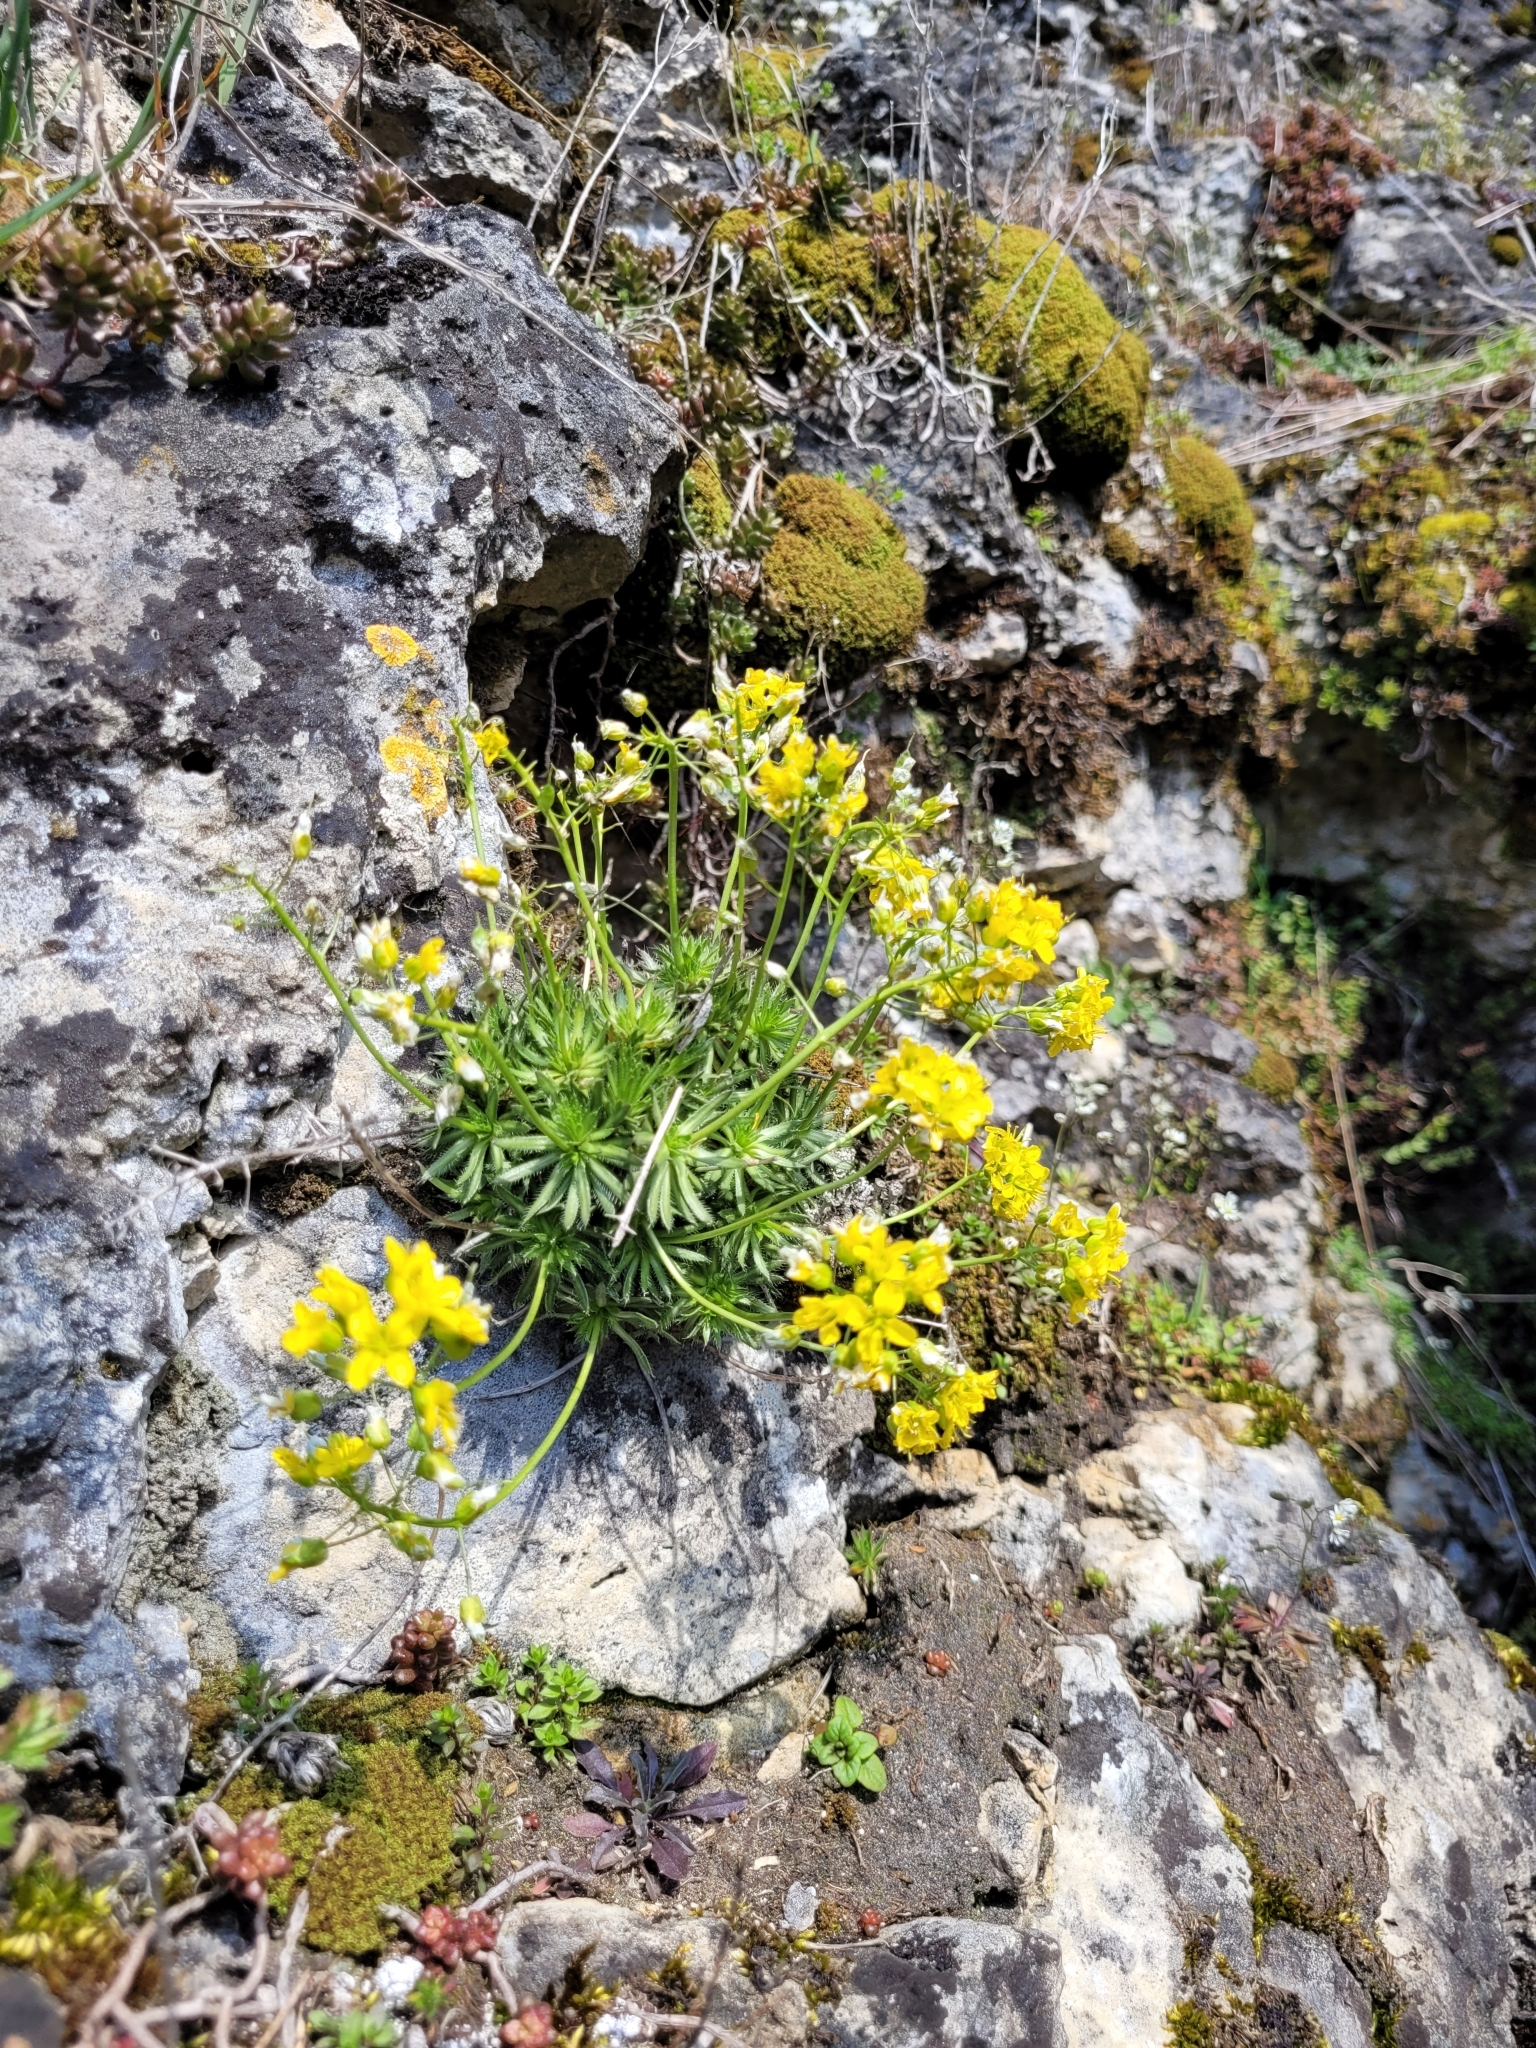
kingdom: Plantae
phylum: Tracheophyta
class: Magnoliopsida
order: Brassicales
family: Brassicaceae
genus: Draba
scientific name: Draba aizoides
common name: Yellow whitlowgrass
